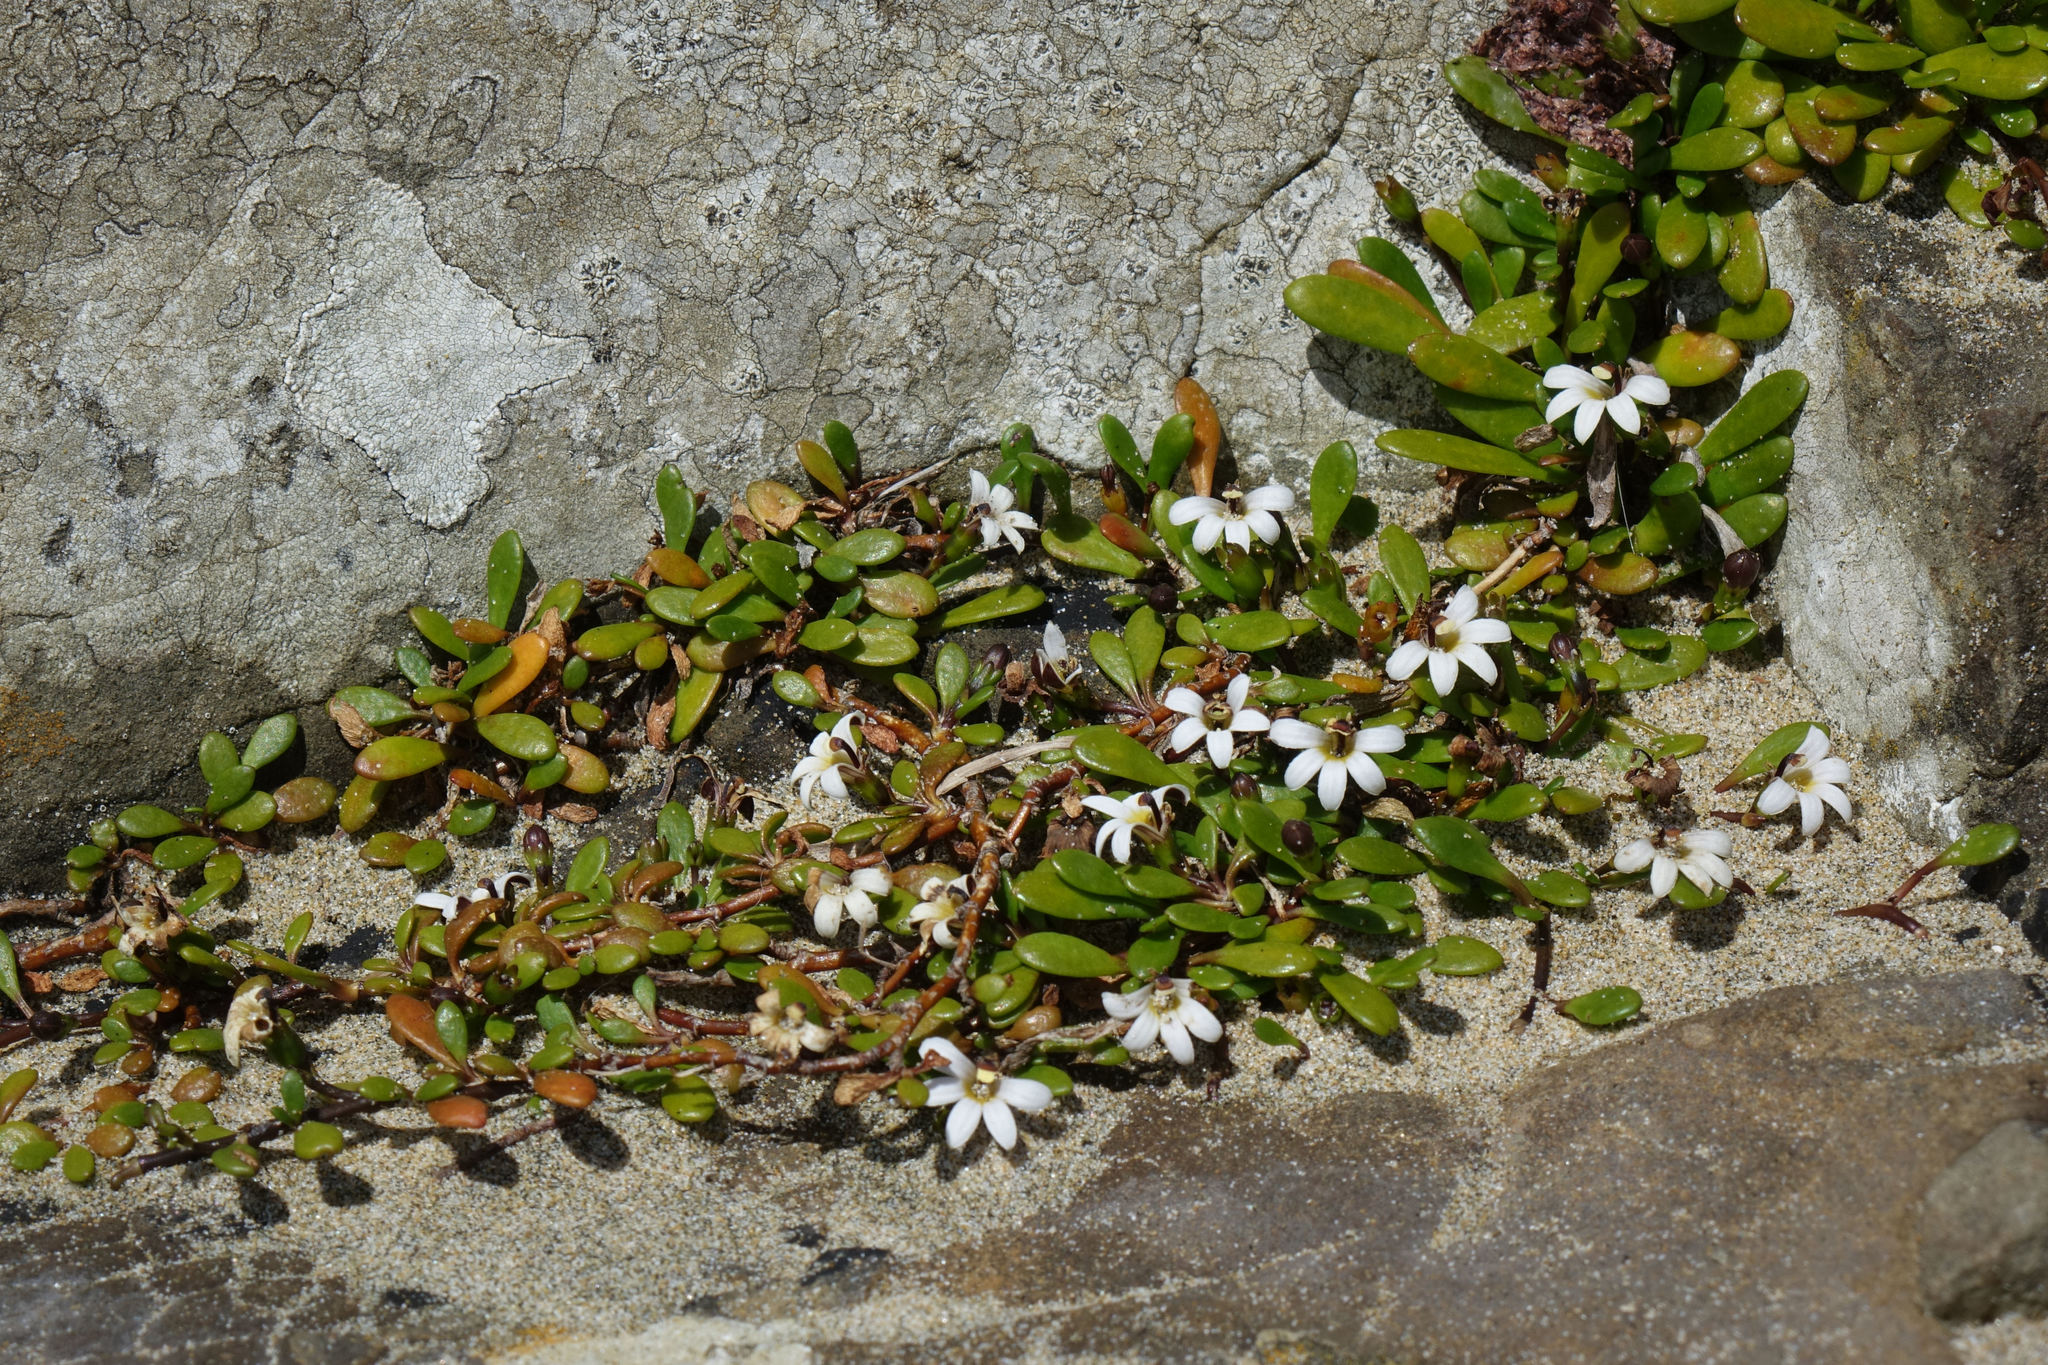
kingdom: Plantae
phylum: Tracheophyta
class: Magnoliopsida
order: Asterales
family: Goodeniaceae
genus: Goodenia
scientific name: Goodenia radicans
